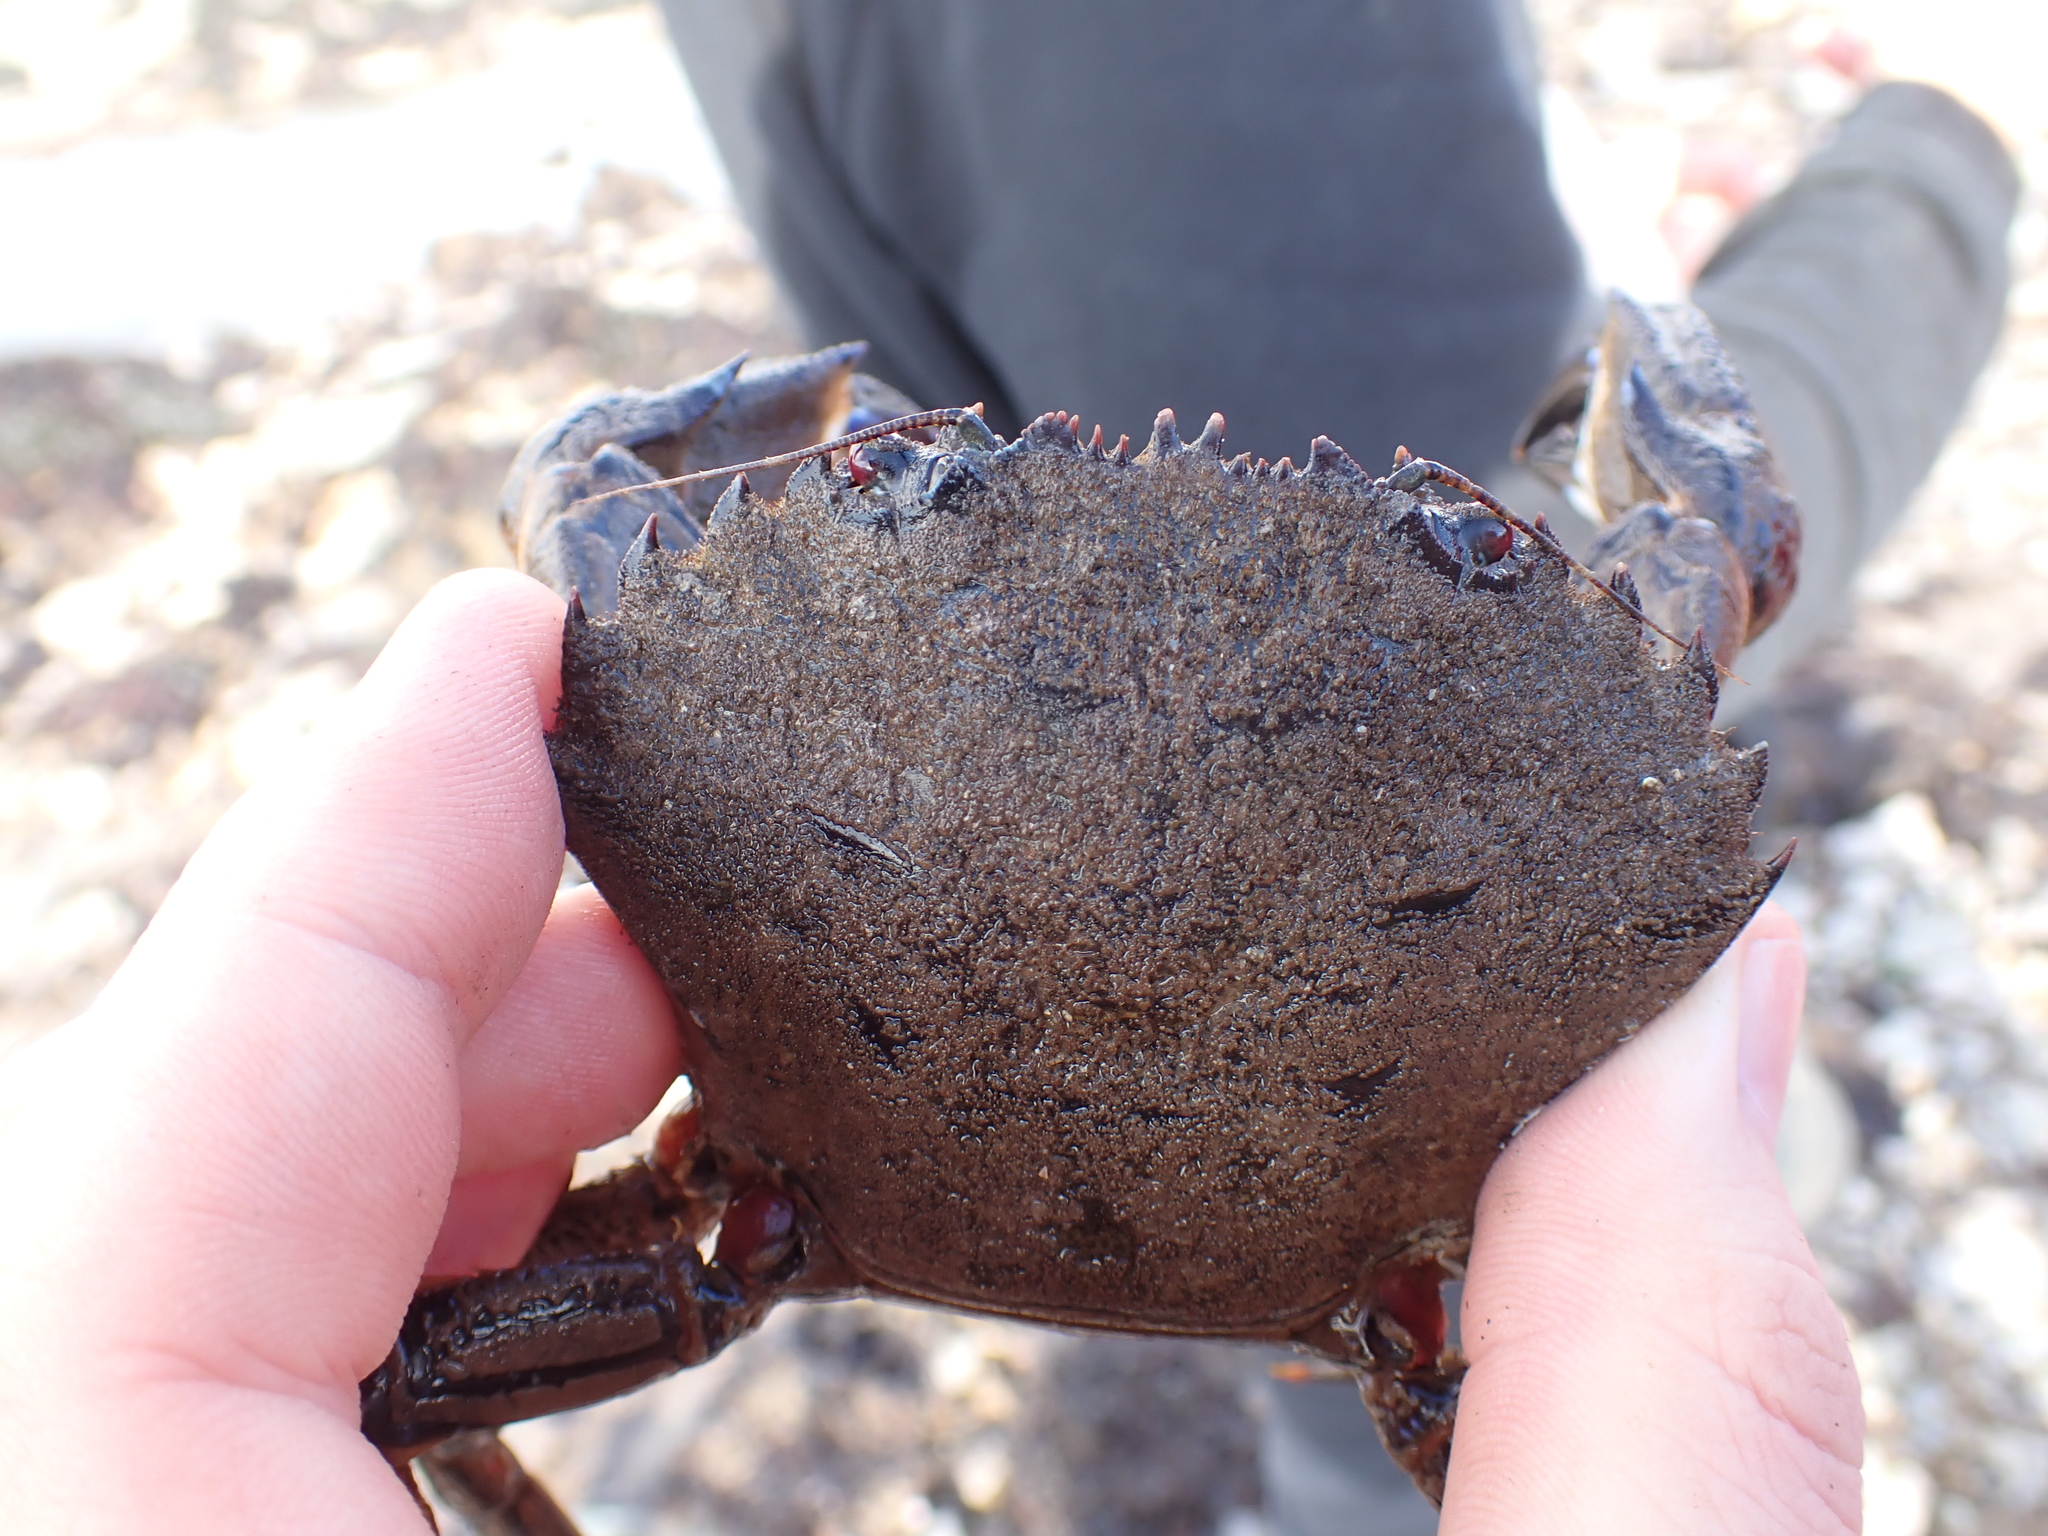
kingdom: Animalia
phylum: Arthropoda
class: Malacostraca
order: Decapoda
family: Polybiidae
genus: Necora
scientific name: Necora puber
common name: Velvet swimming crab
